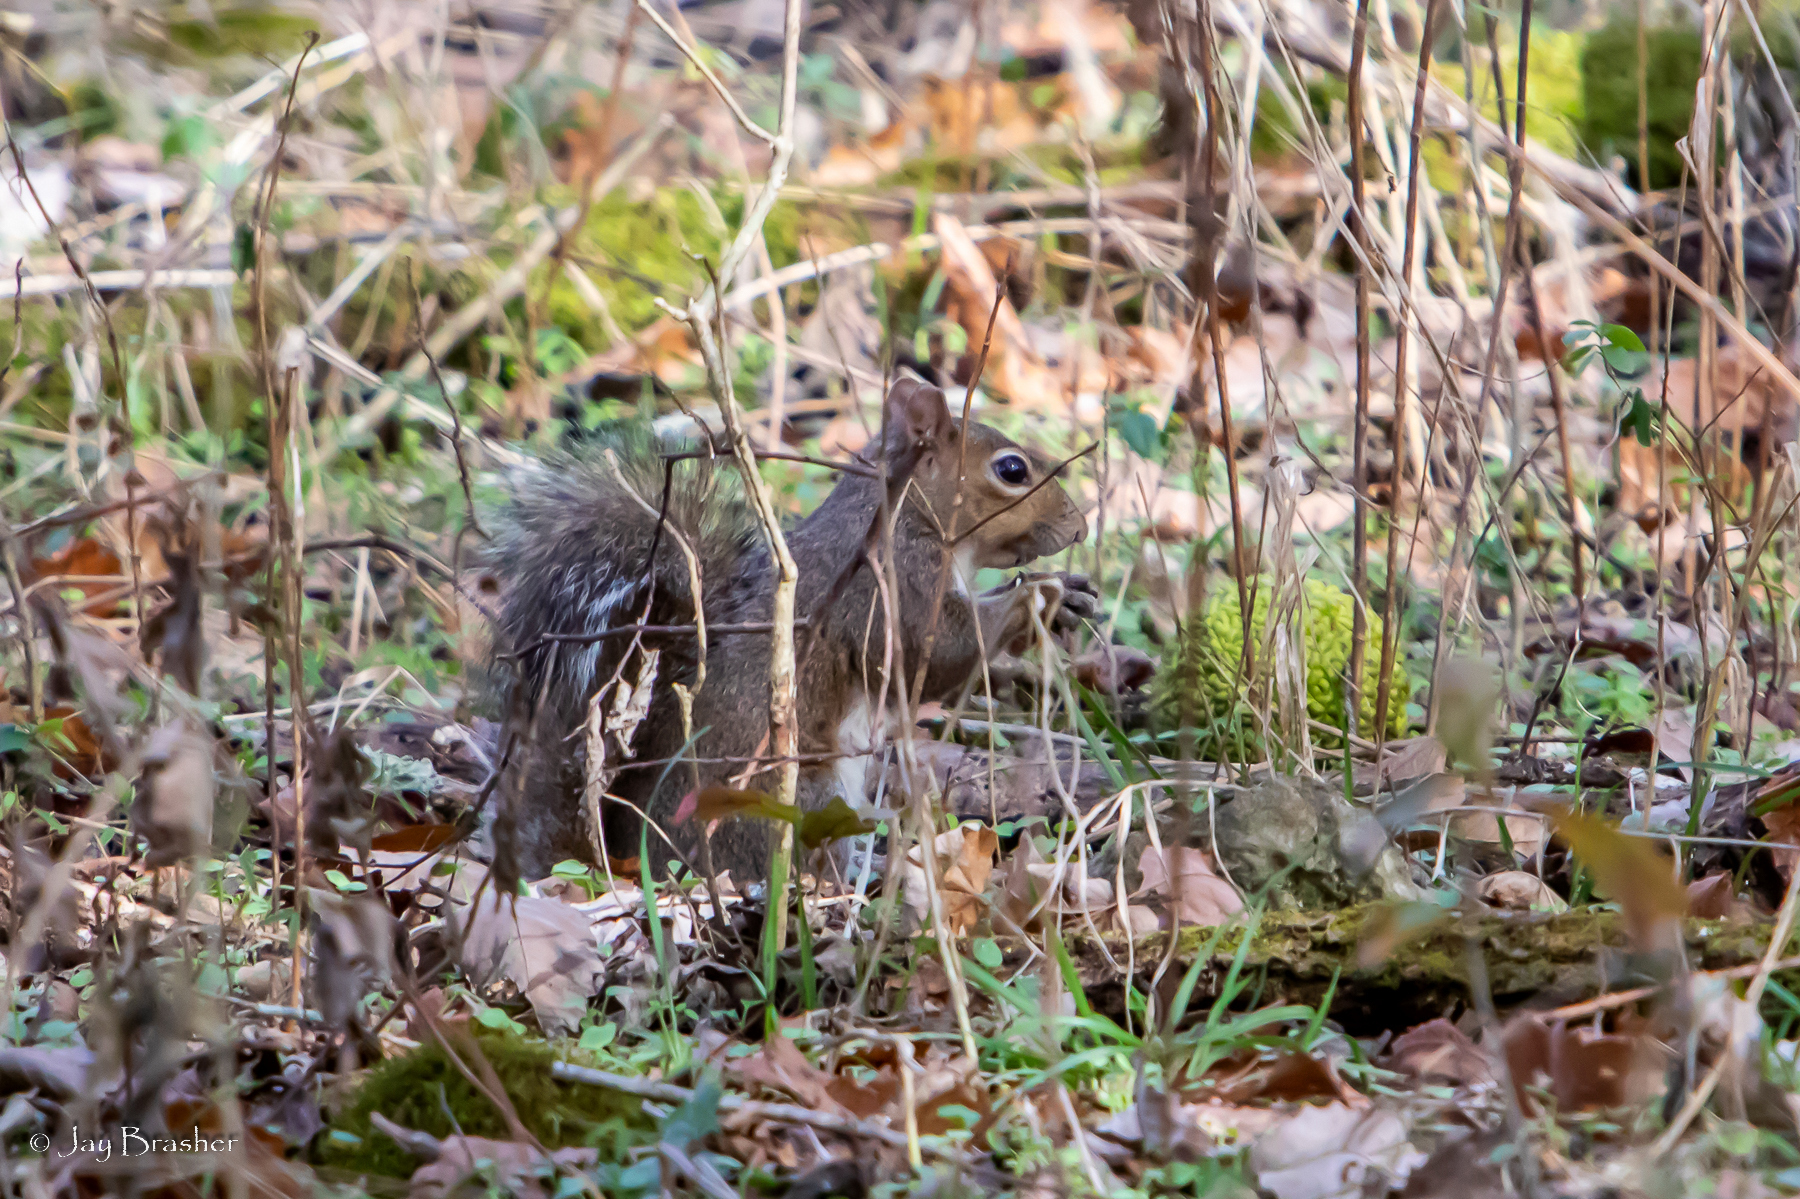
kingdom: Animalia
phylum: Chordata
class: Mammalia
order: Rodentia
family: Sciuridae
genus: Sciurus
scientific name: Sciurus carolinensis
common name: Eastern gray squirrel
